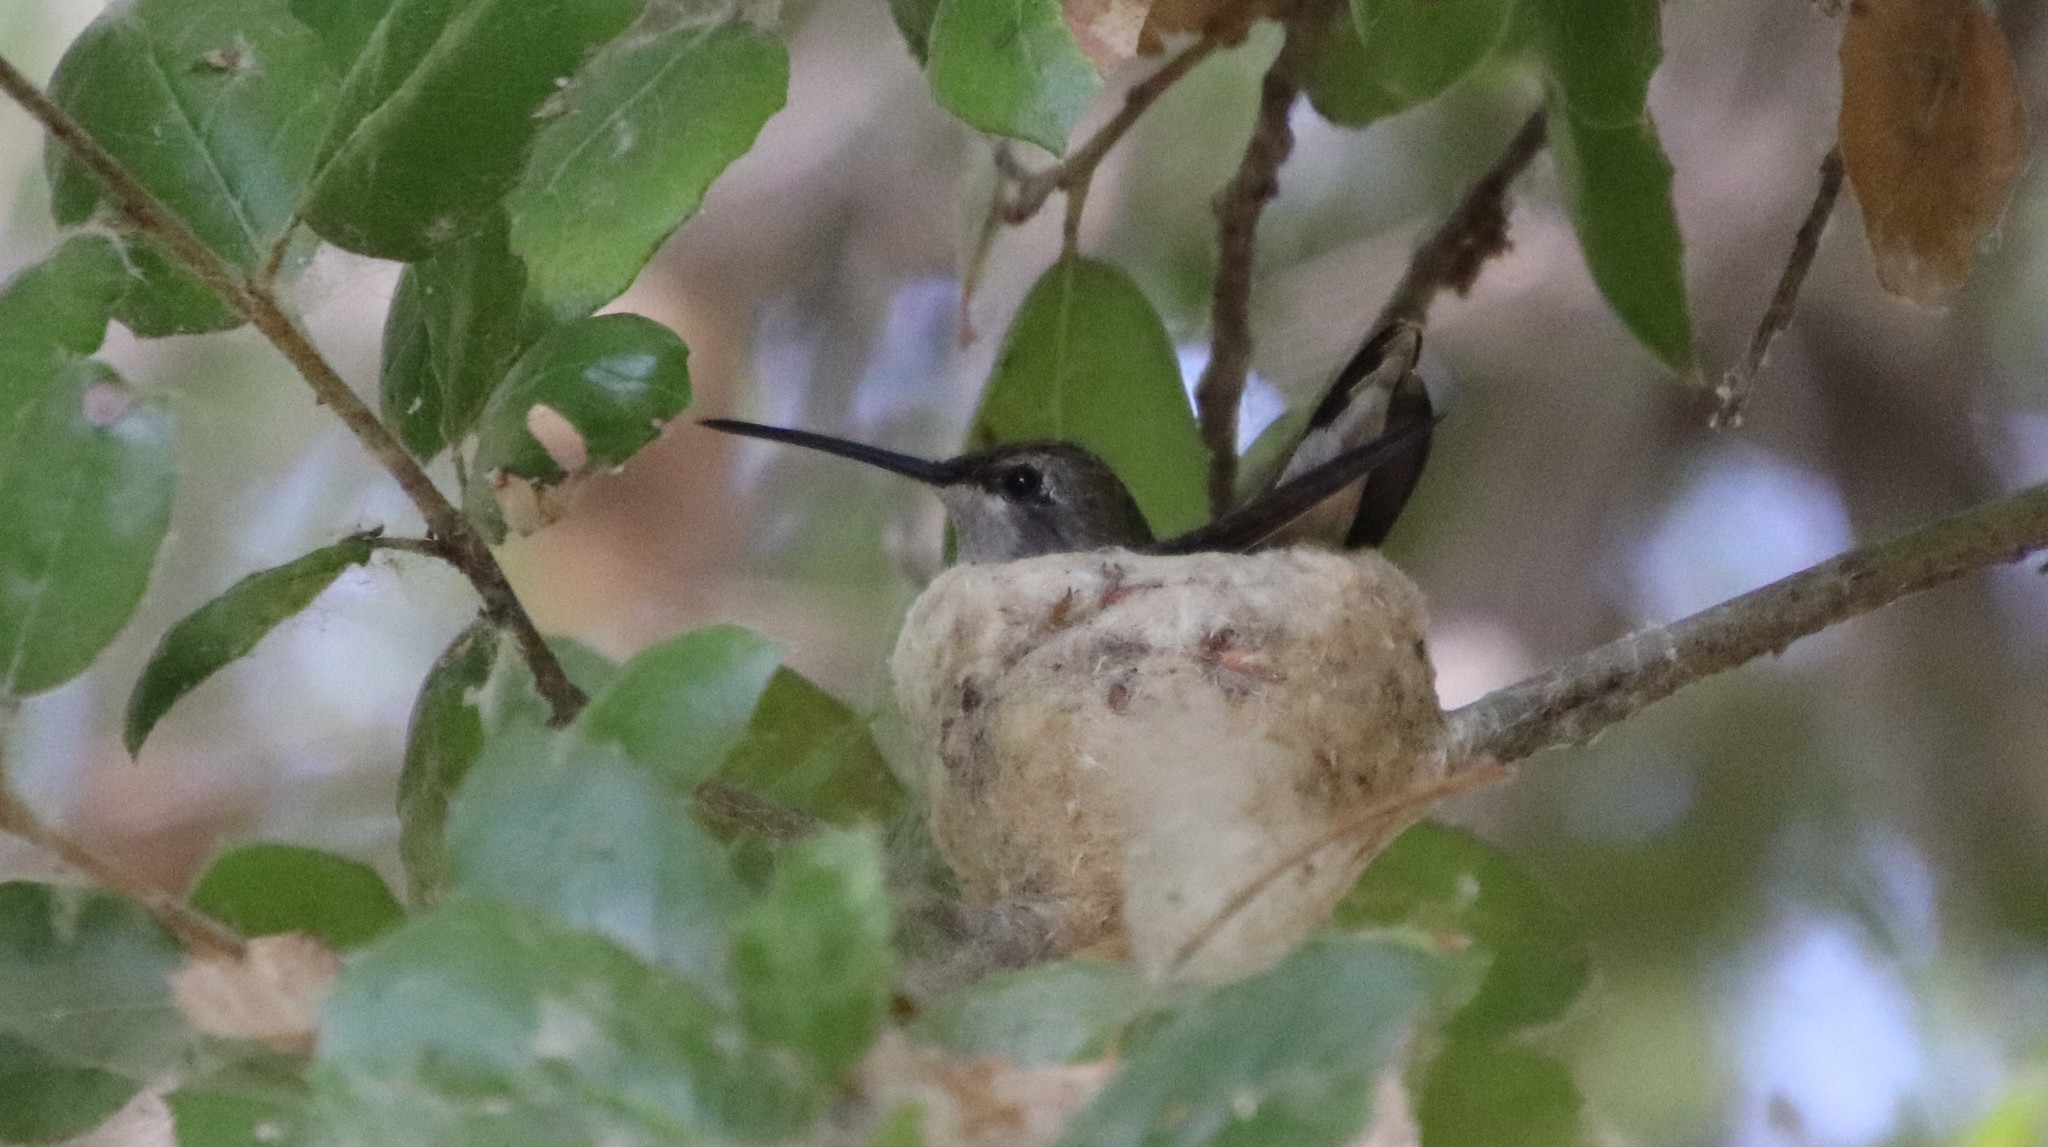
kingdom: Animalia
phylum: Chordata
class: Aves
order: Apodiformes
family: Trochilidae
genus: Archilochus
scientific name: Archilochus alexandri
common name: Black-chinned hummingbird
